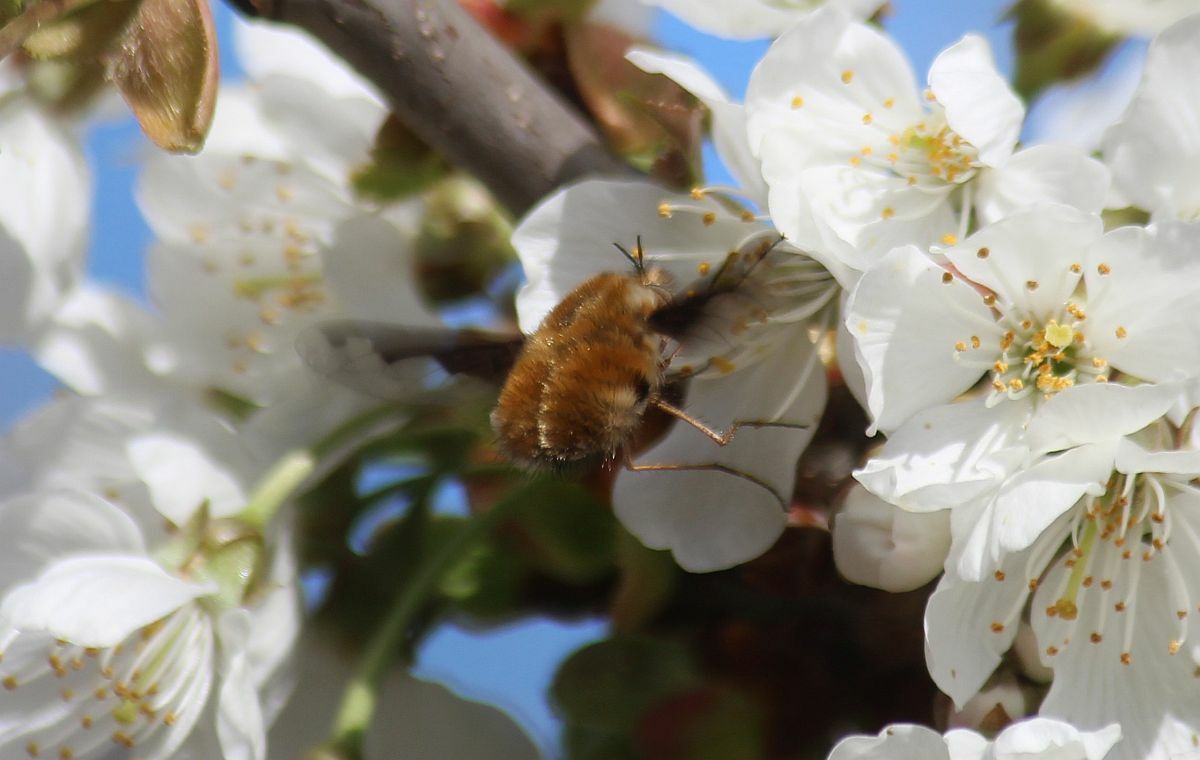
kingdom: Animalia
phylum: Arthropoda
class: Insecta
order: Diptera
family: Bombyliidae
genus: Bombylius
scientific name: Bombylius major
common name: Bee fly
